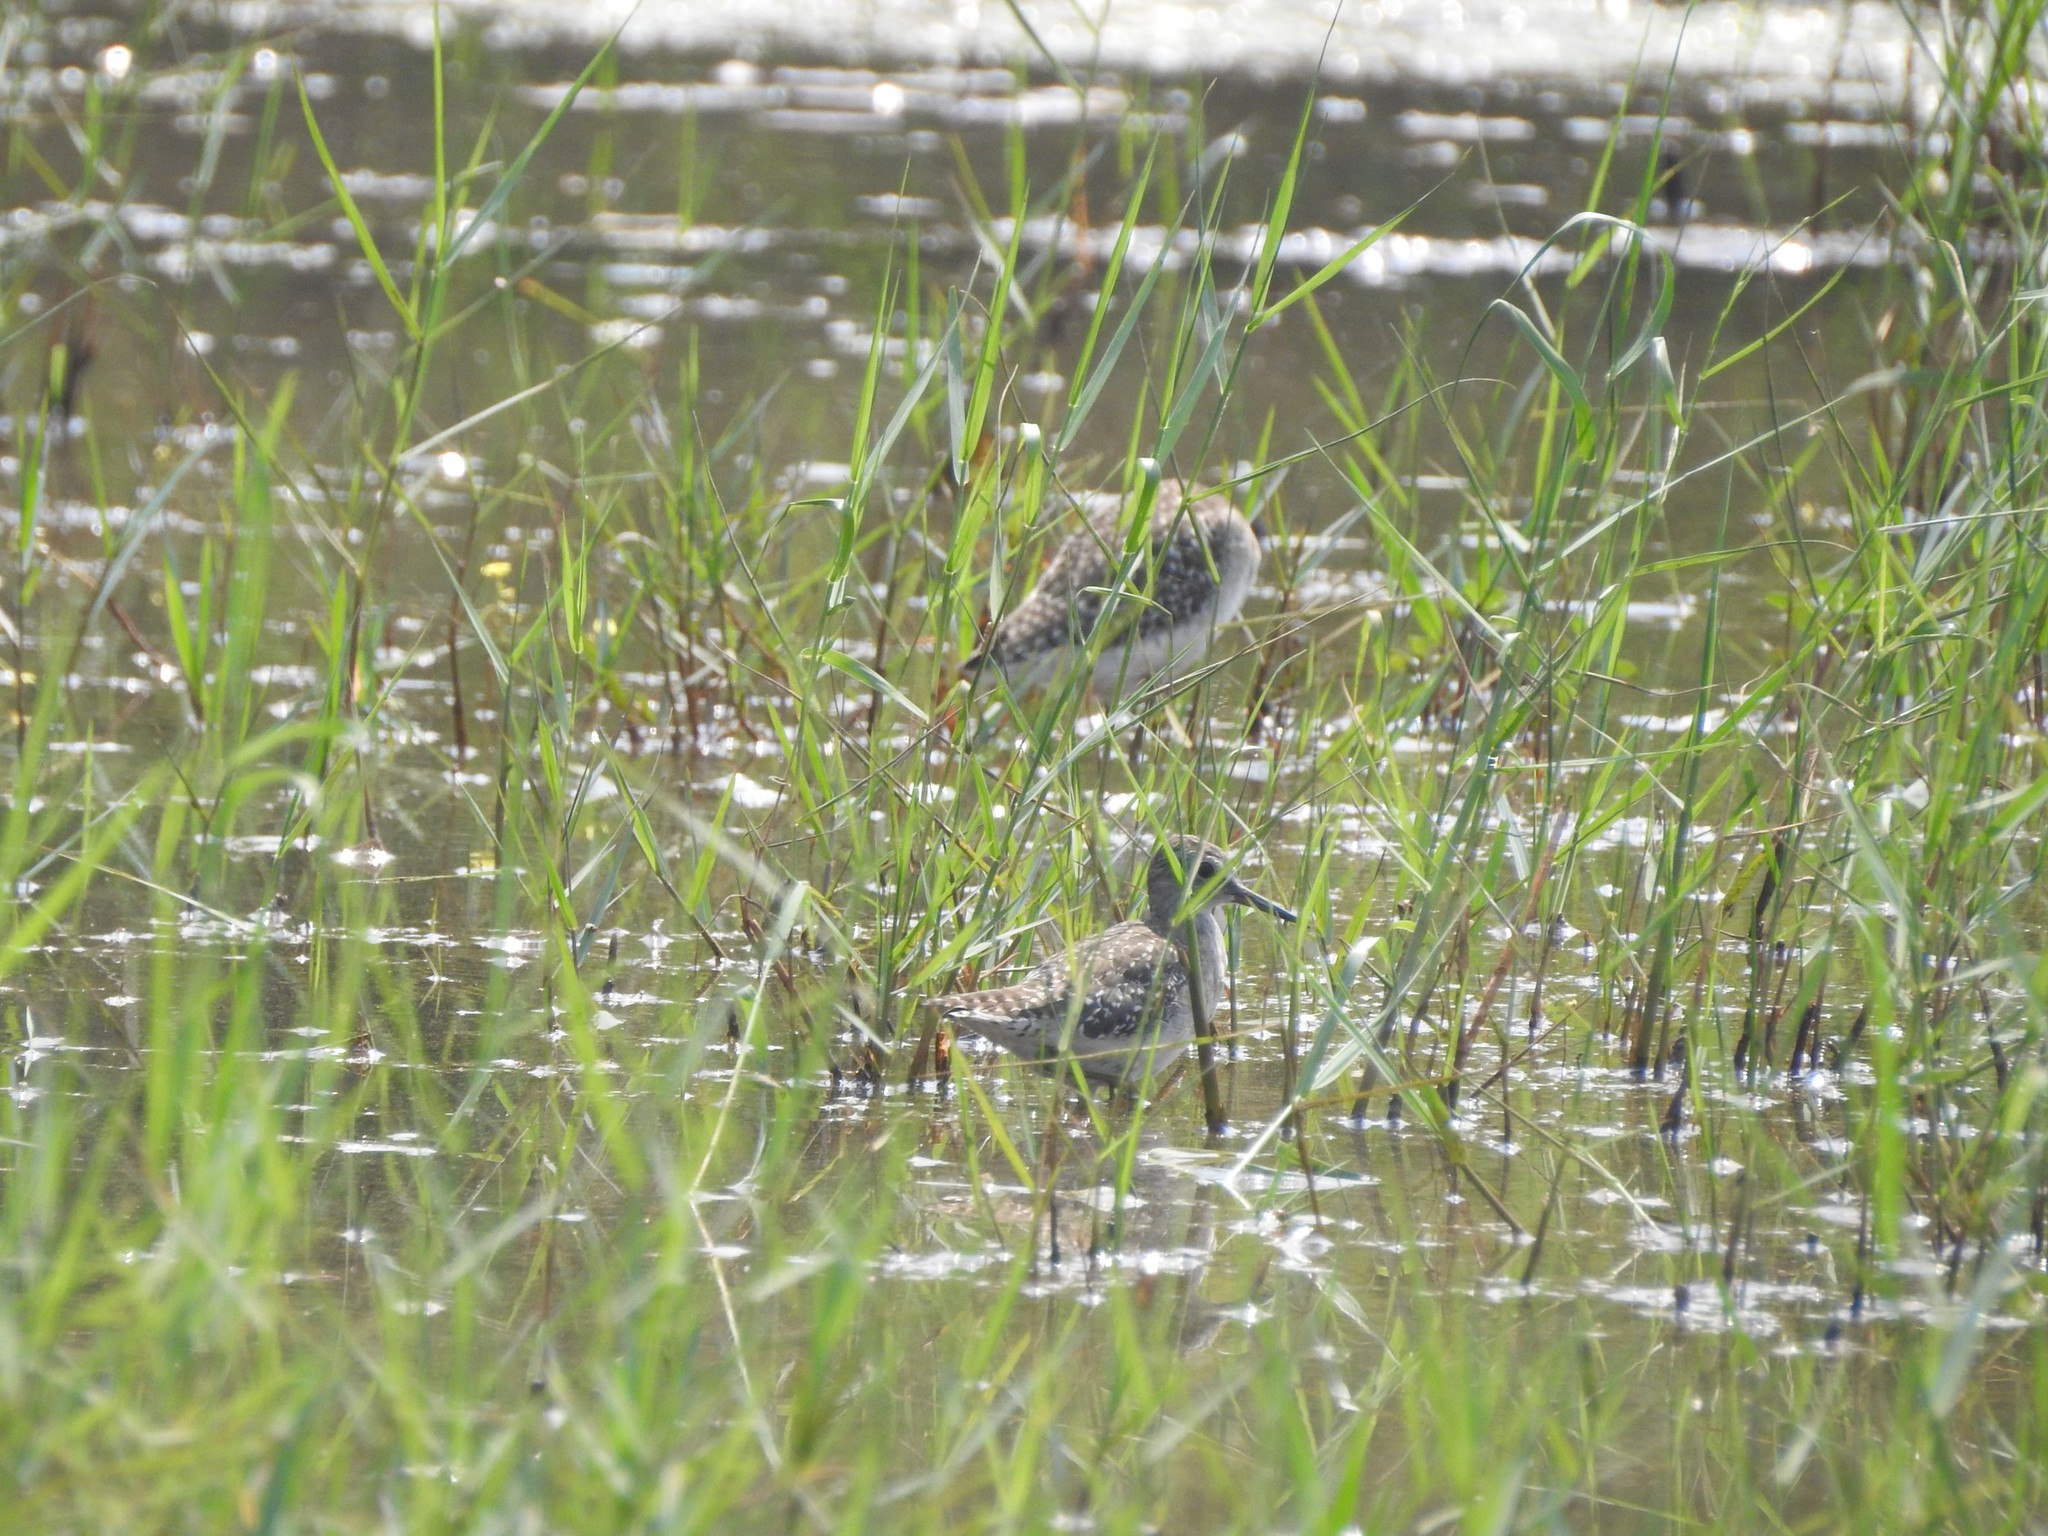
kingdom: Animalia
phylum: Chordata
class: Aves
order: Charadriiformes
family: Scolopacidae
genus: Tringa
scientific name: Tringa glareola
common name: Wood sandpiper
